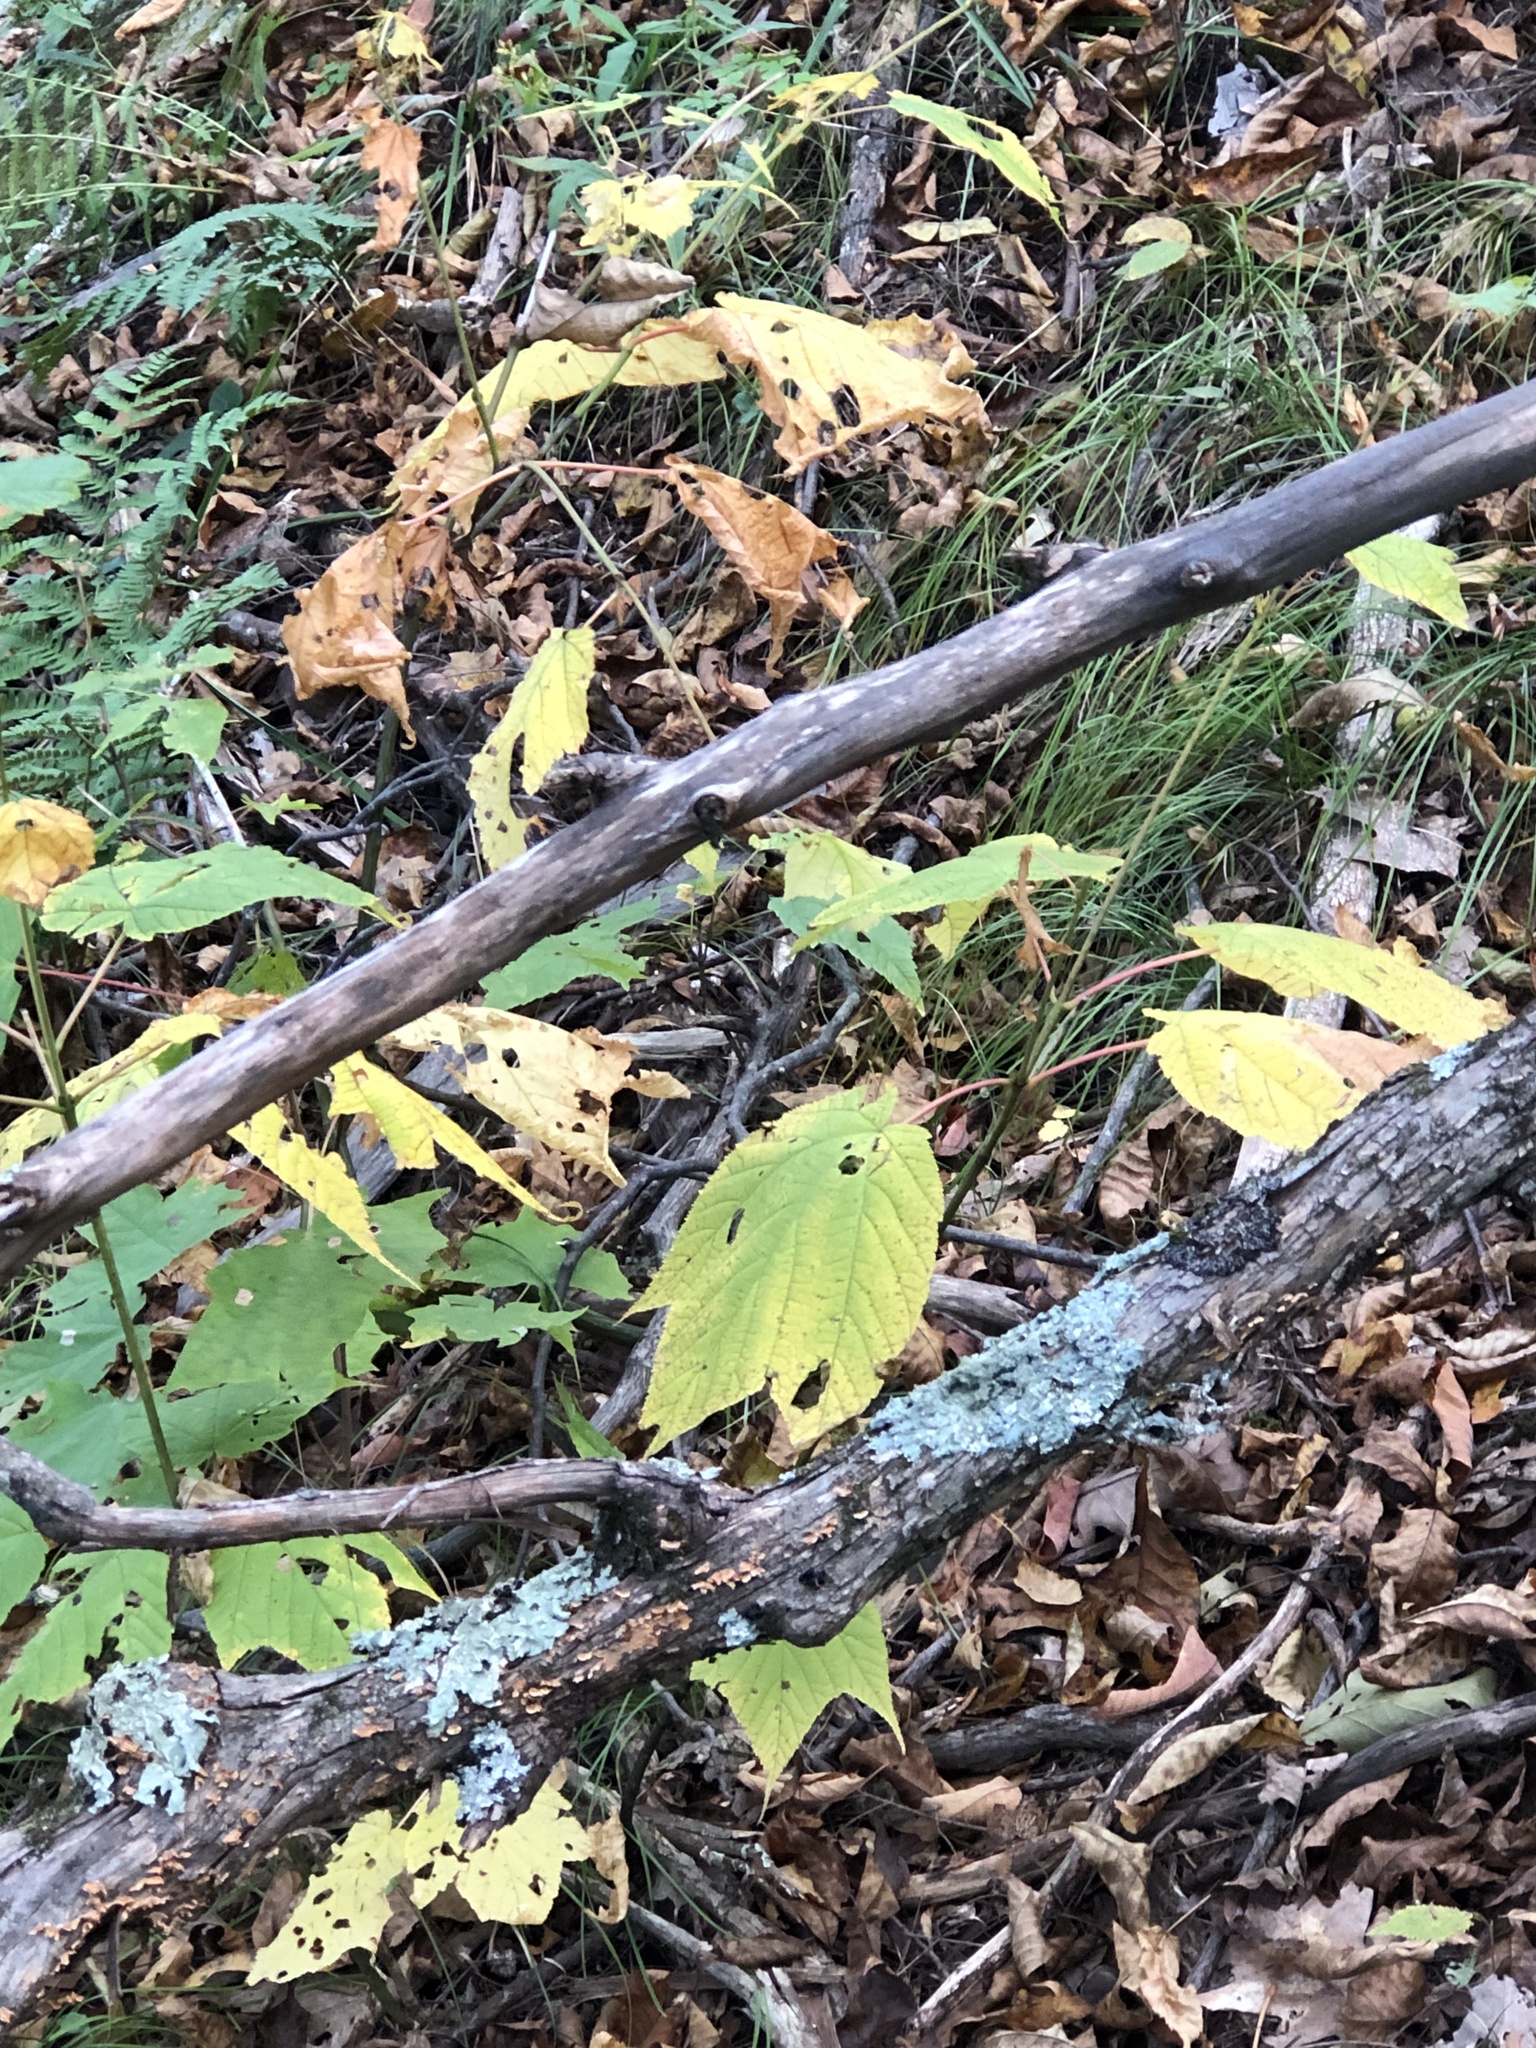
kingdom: Plantae
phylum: Tracheophyta
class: Magnoliopsida
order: Sapindales
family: Sapindaceae
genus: Acer
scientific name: Acer pensylvanicum
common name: Moosewood
